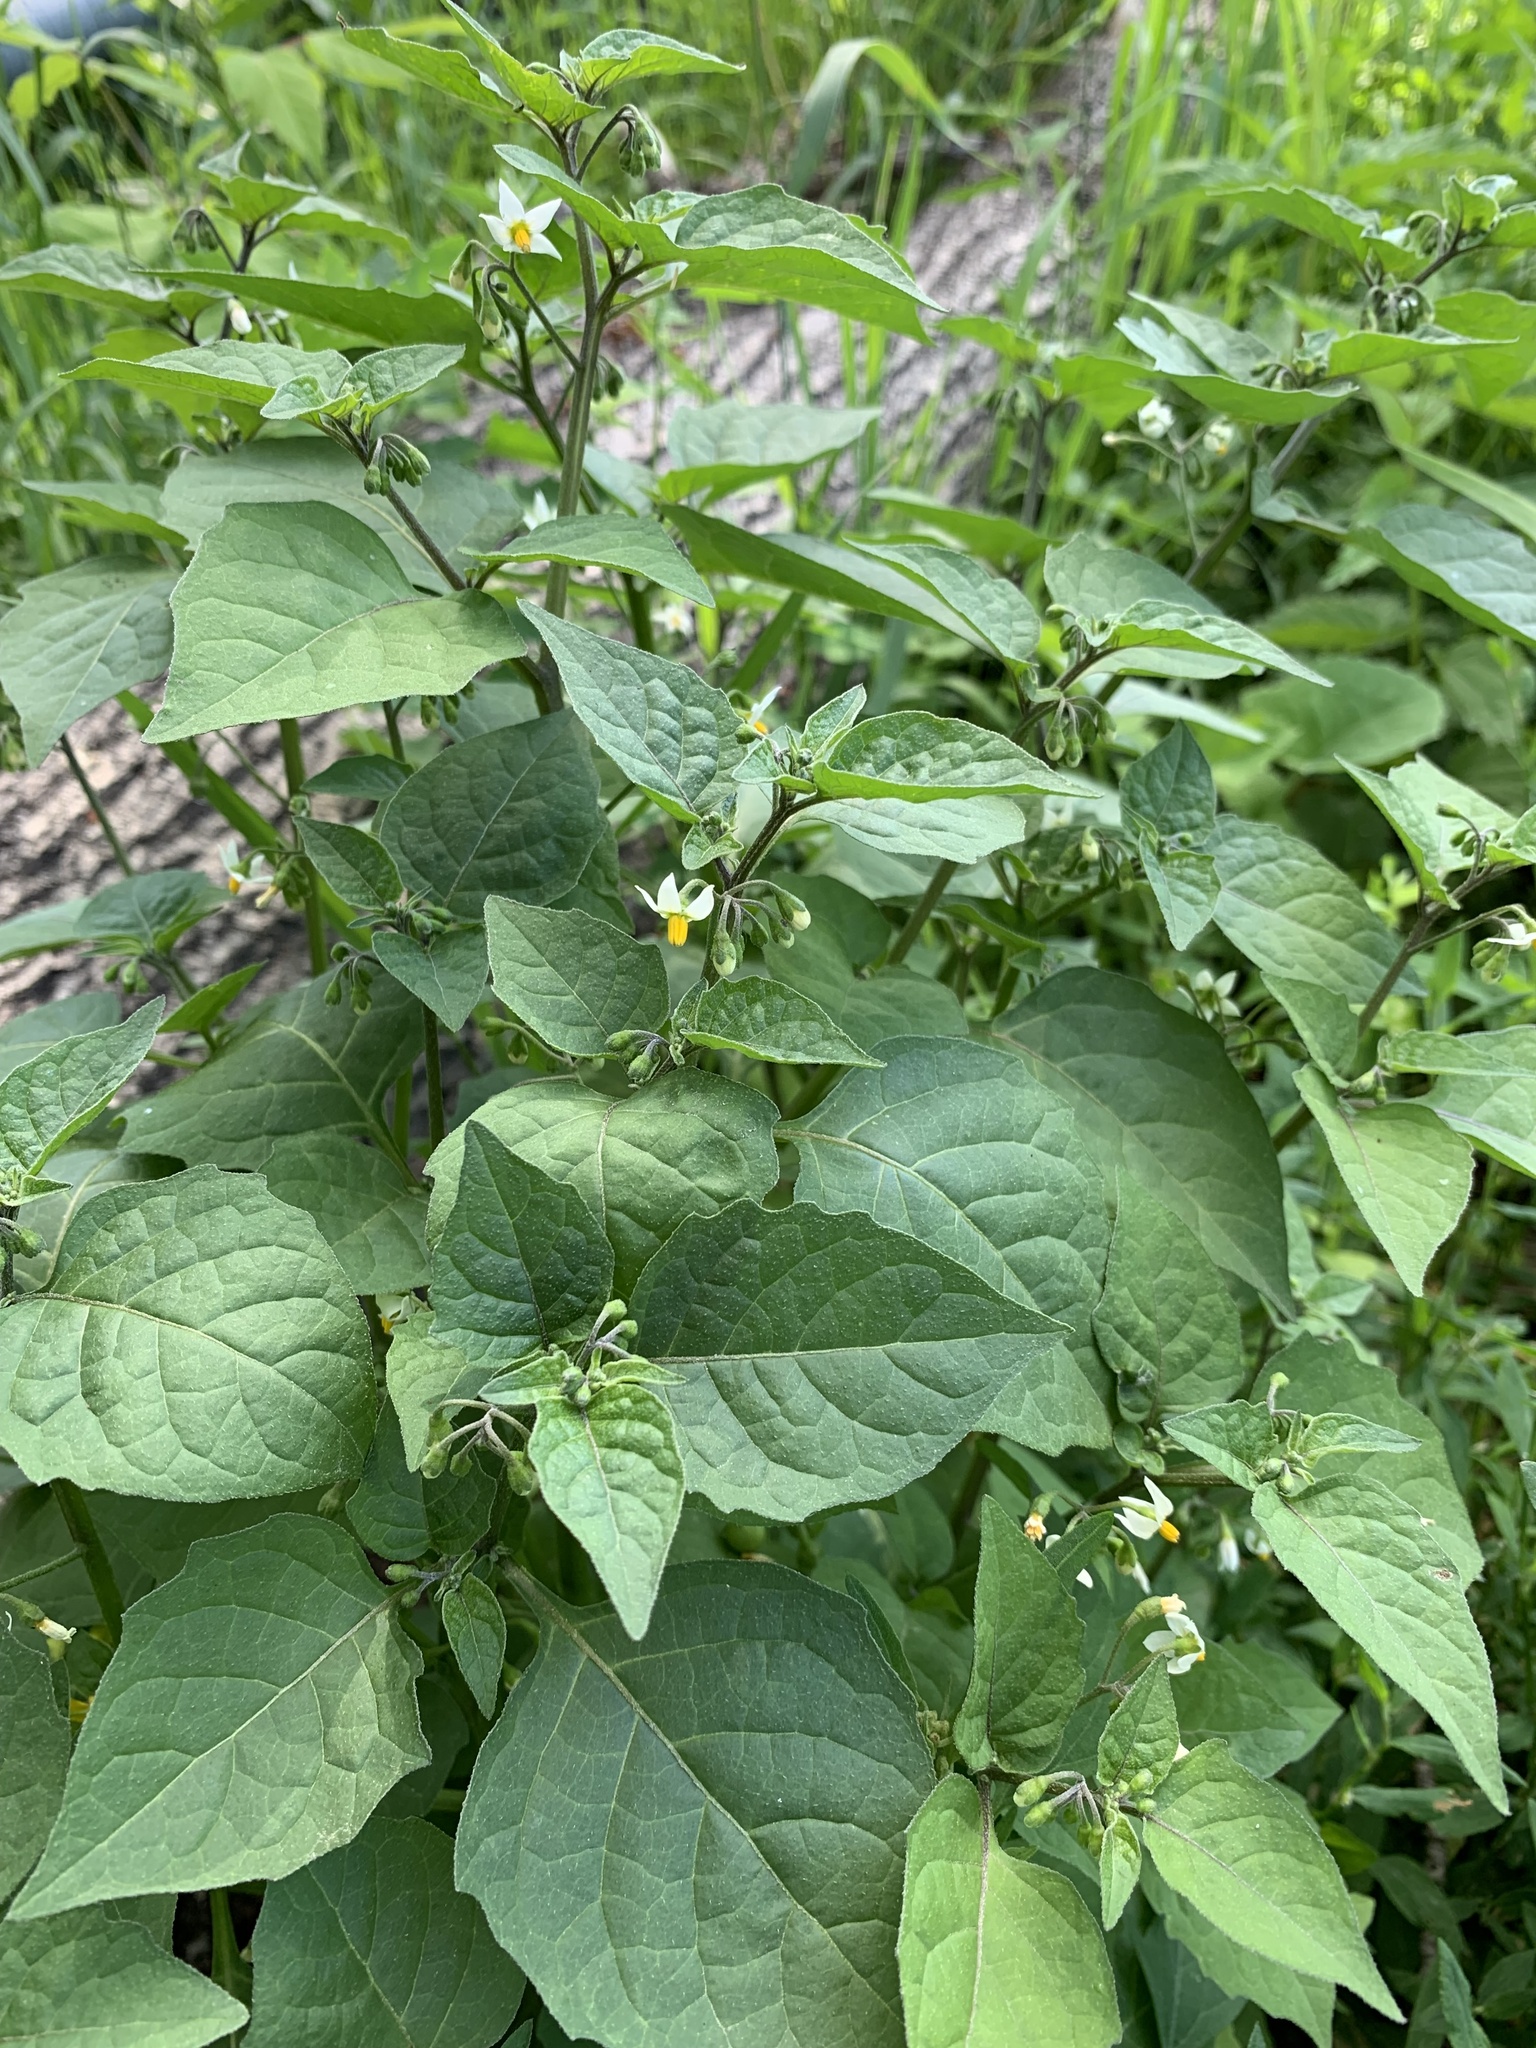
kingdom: Plantae
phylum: Tracheophyta
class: Magnoliopsida
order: Solanales
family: Solanaceae
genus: Solanum
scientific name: Solanum nigrum
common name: Black nightshade
